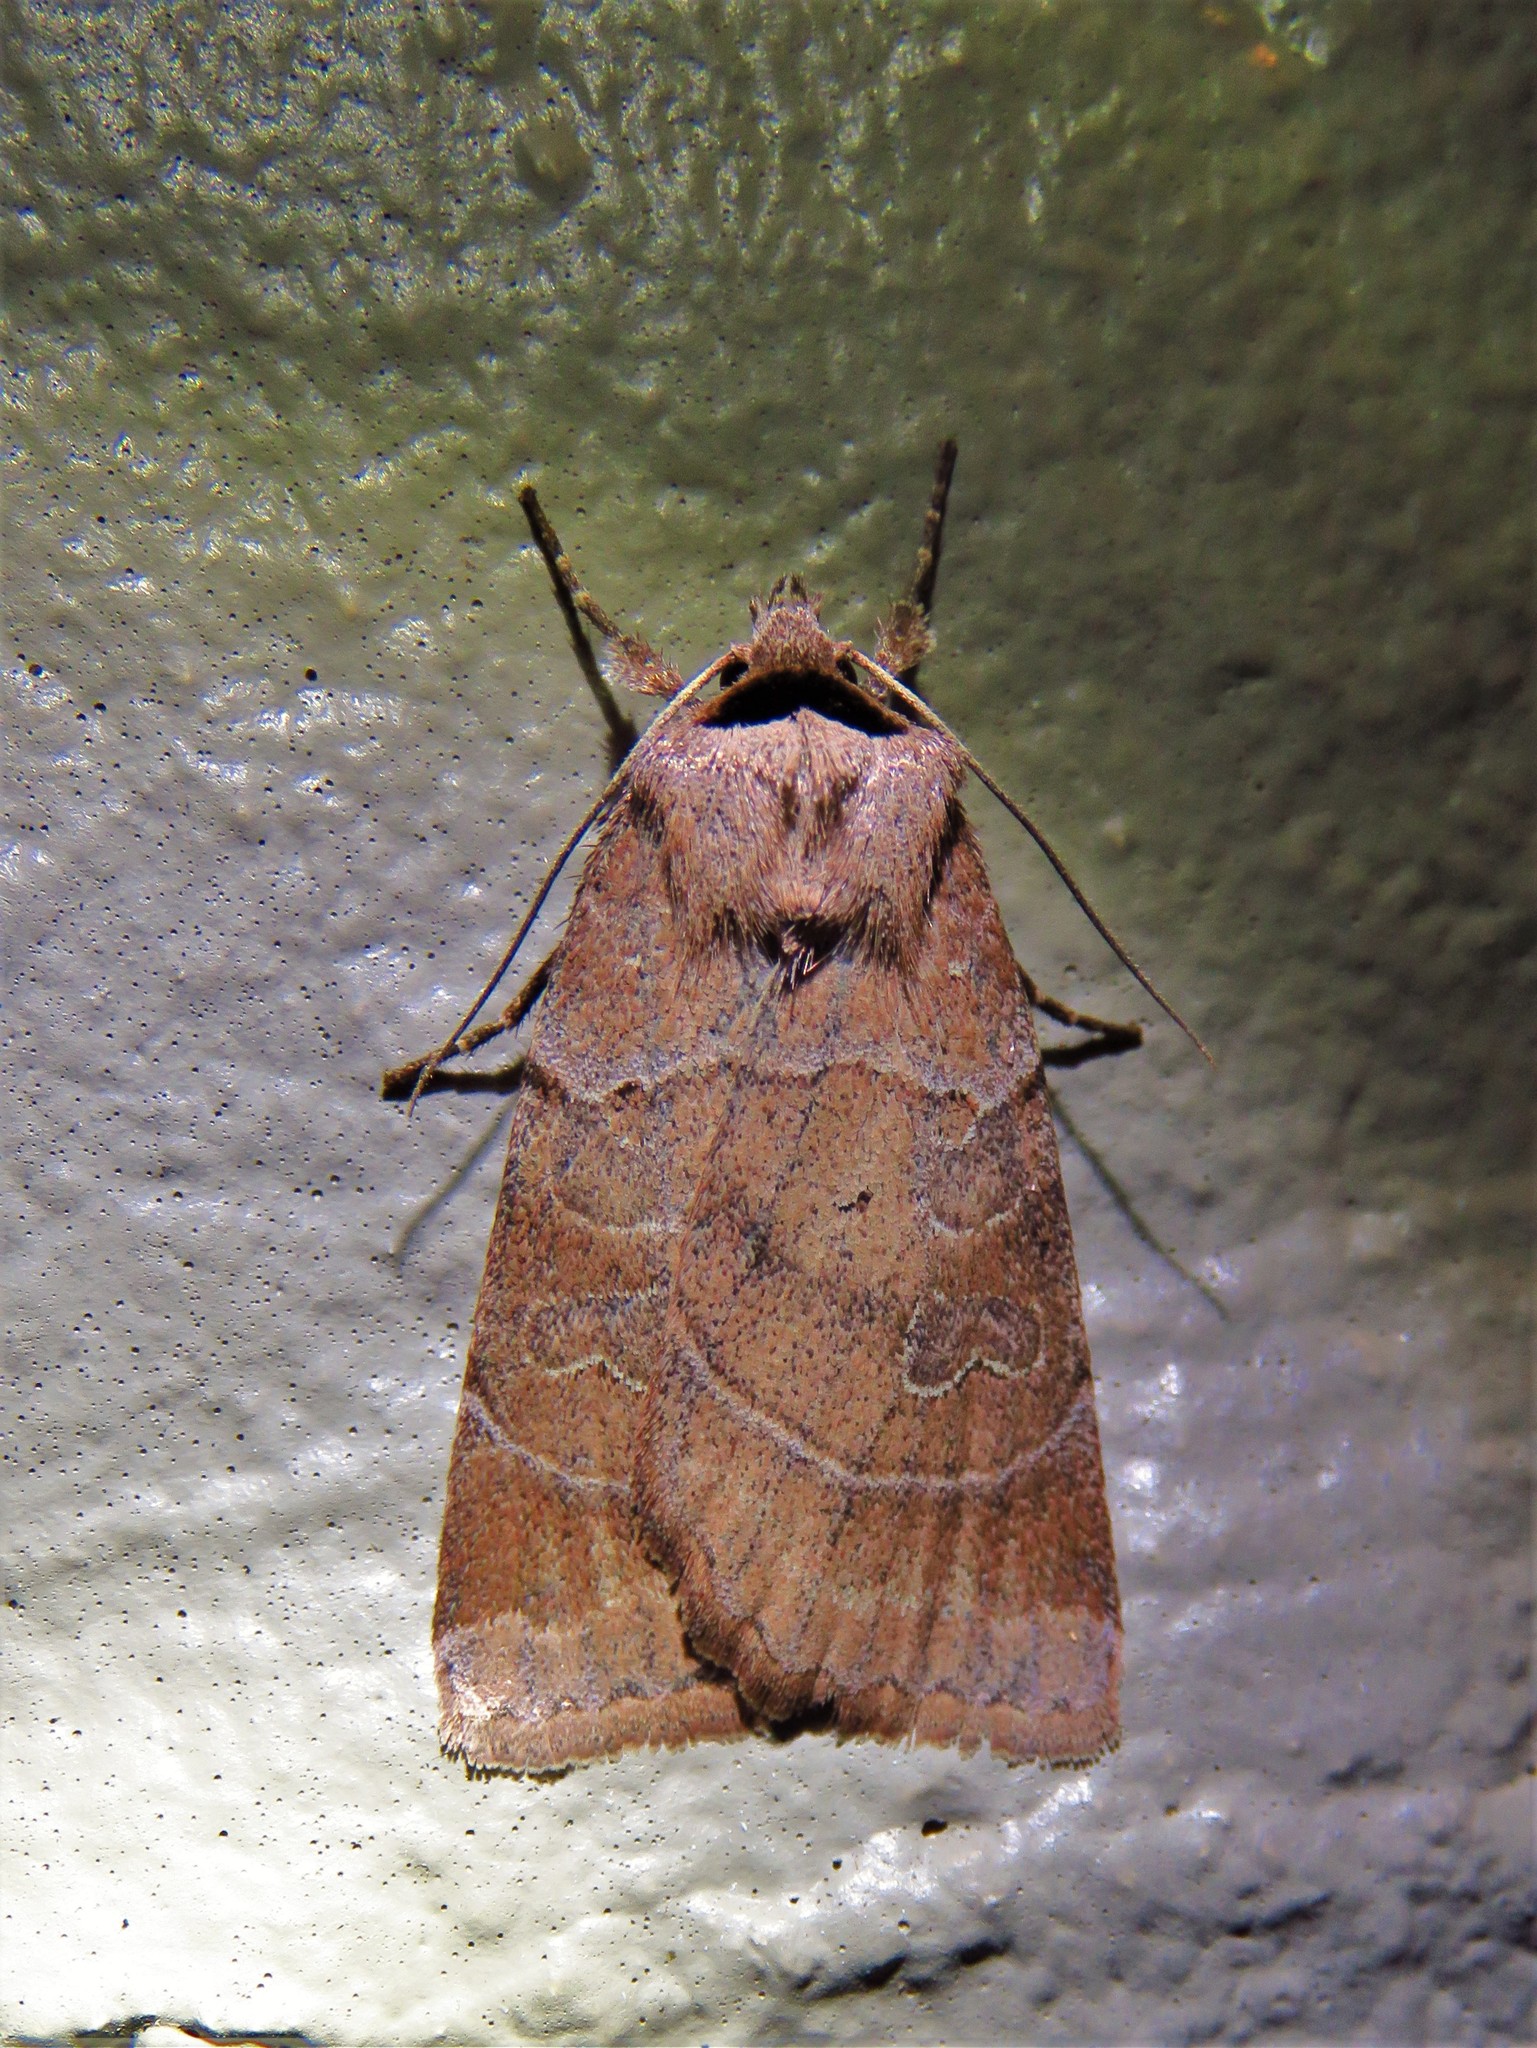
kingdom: Animalia
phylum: Arthropoda
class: Insecta
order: Lepidoptera
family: Noctuidae
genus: Agnorisma
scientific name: Agnorisma badinodis
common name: Pale-banded dart
